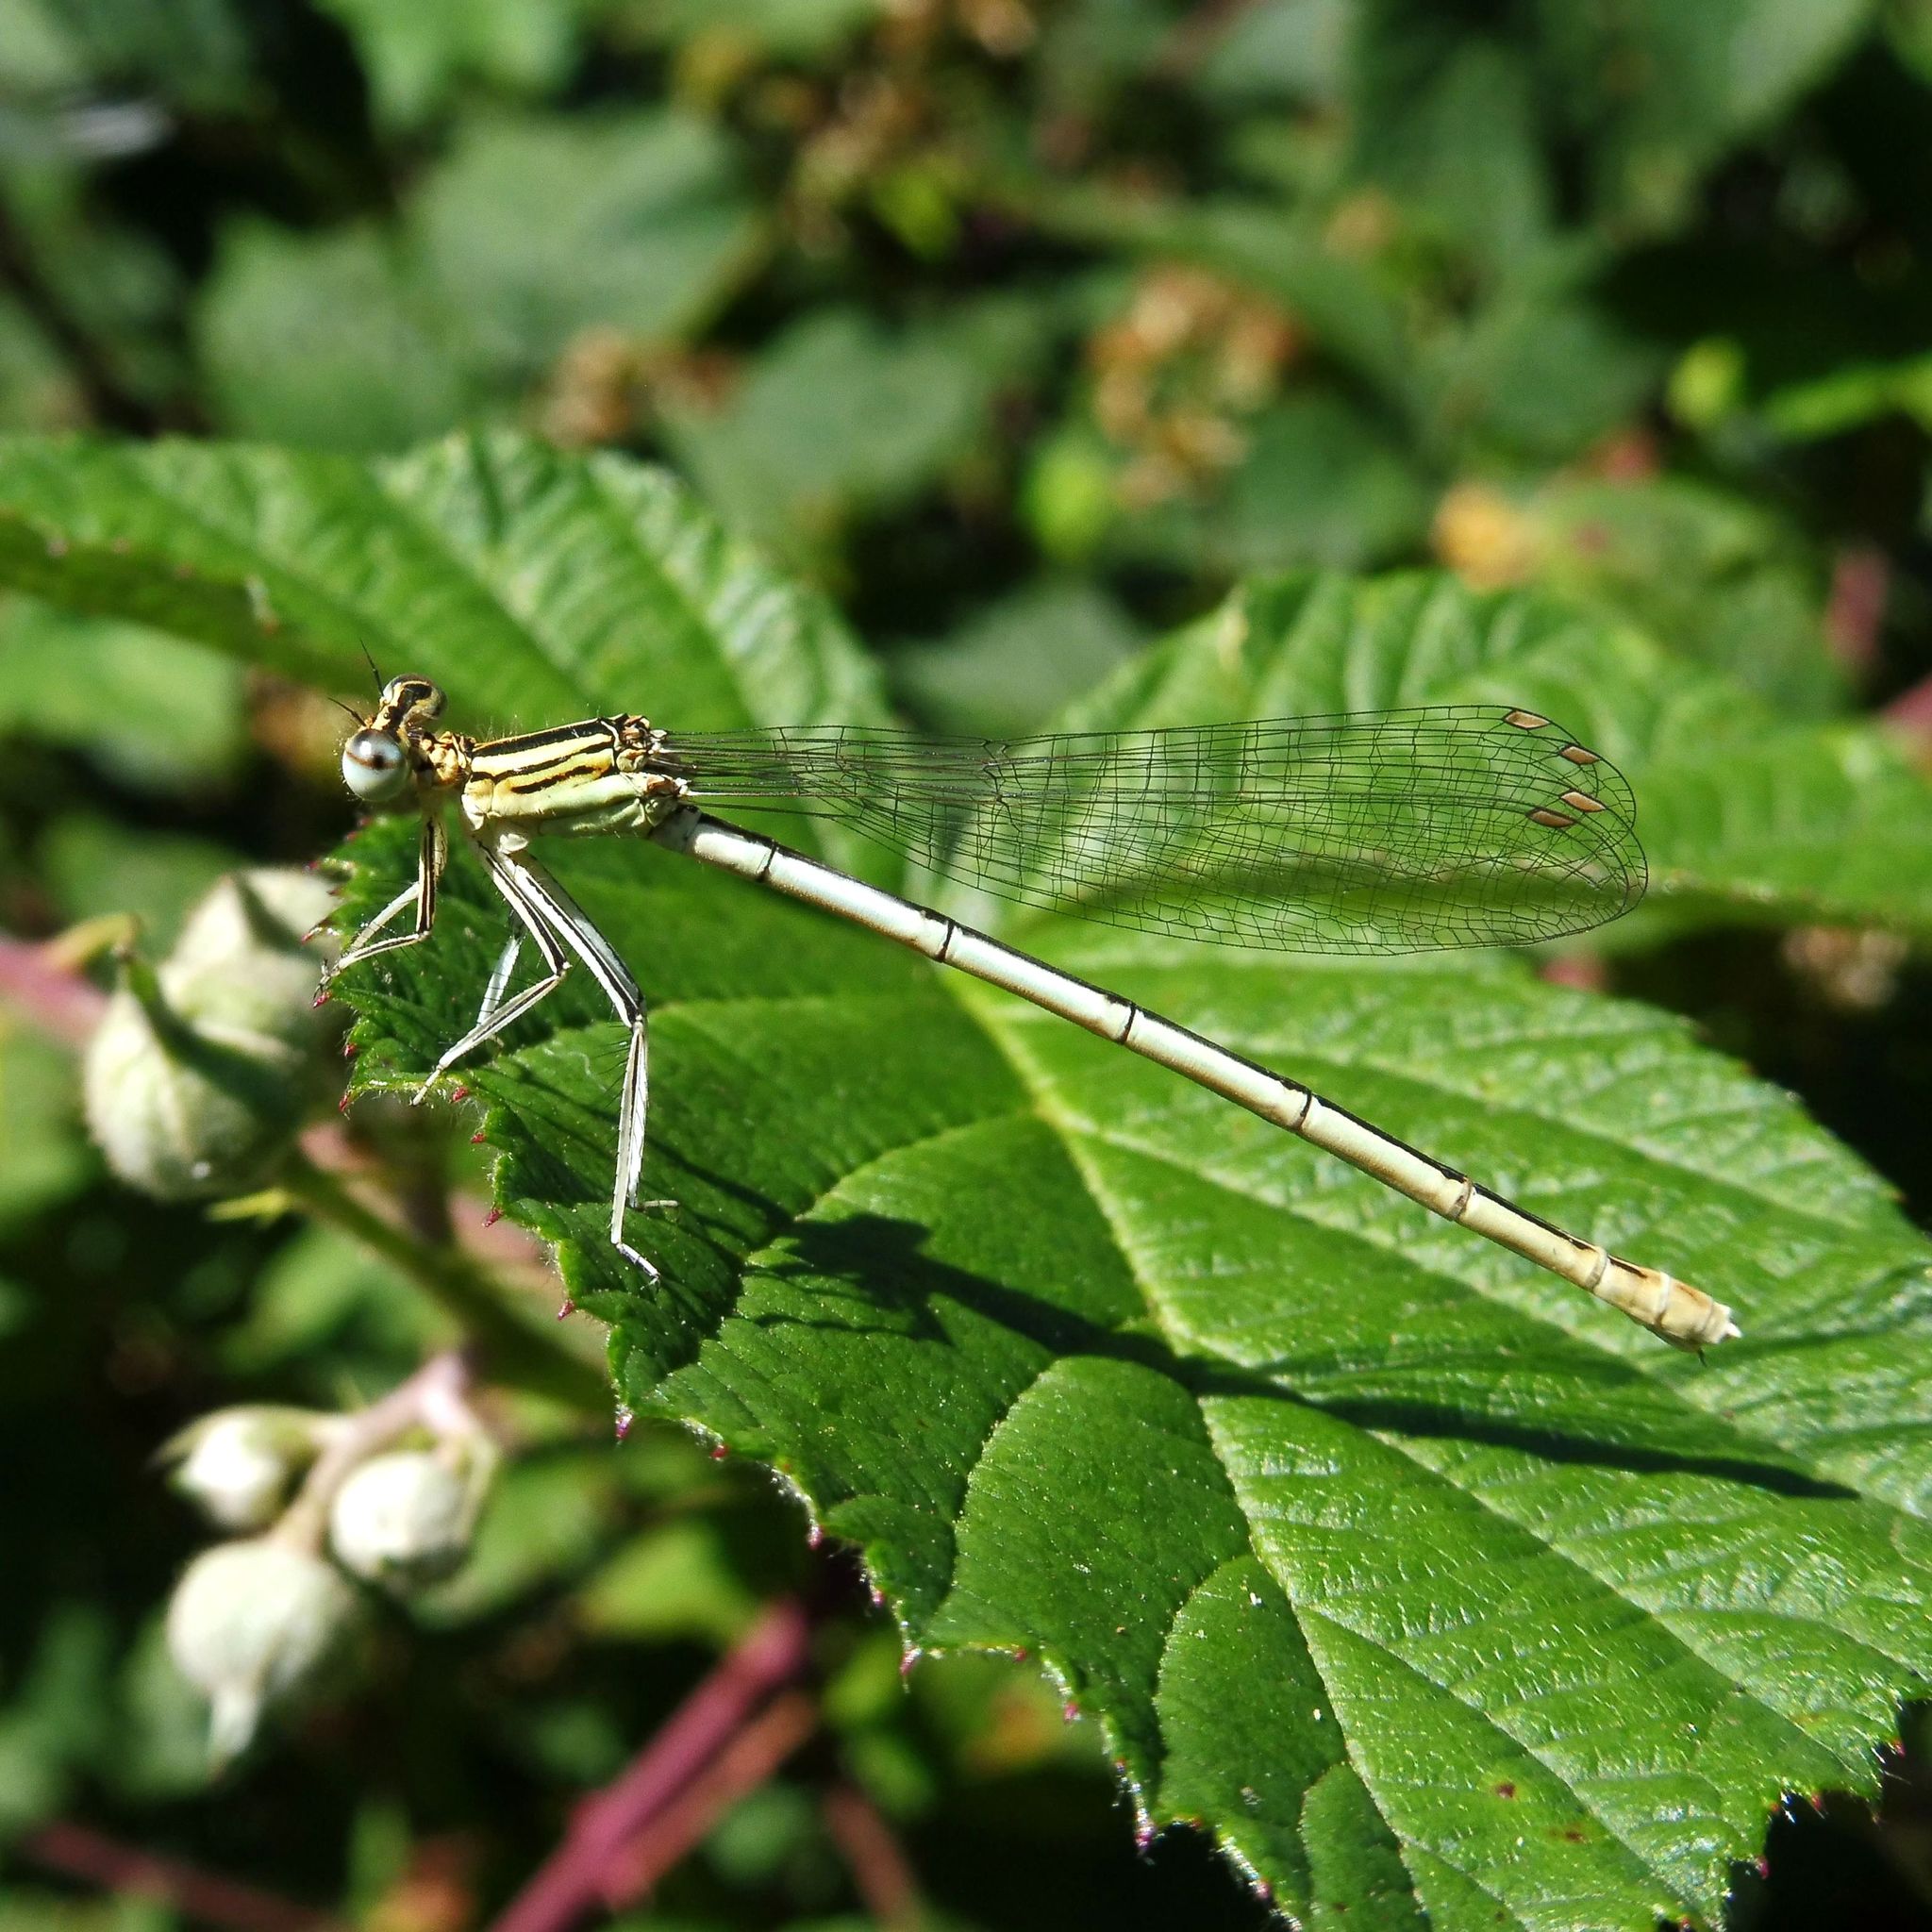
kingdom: Animalia
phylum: Arthropoda
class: Insecta
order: Odonata
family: Platycnemididae
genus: Platycnemis
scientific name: Platycnemis pennipes
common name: White-legged damselfly
